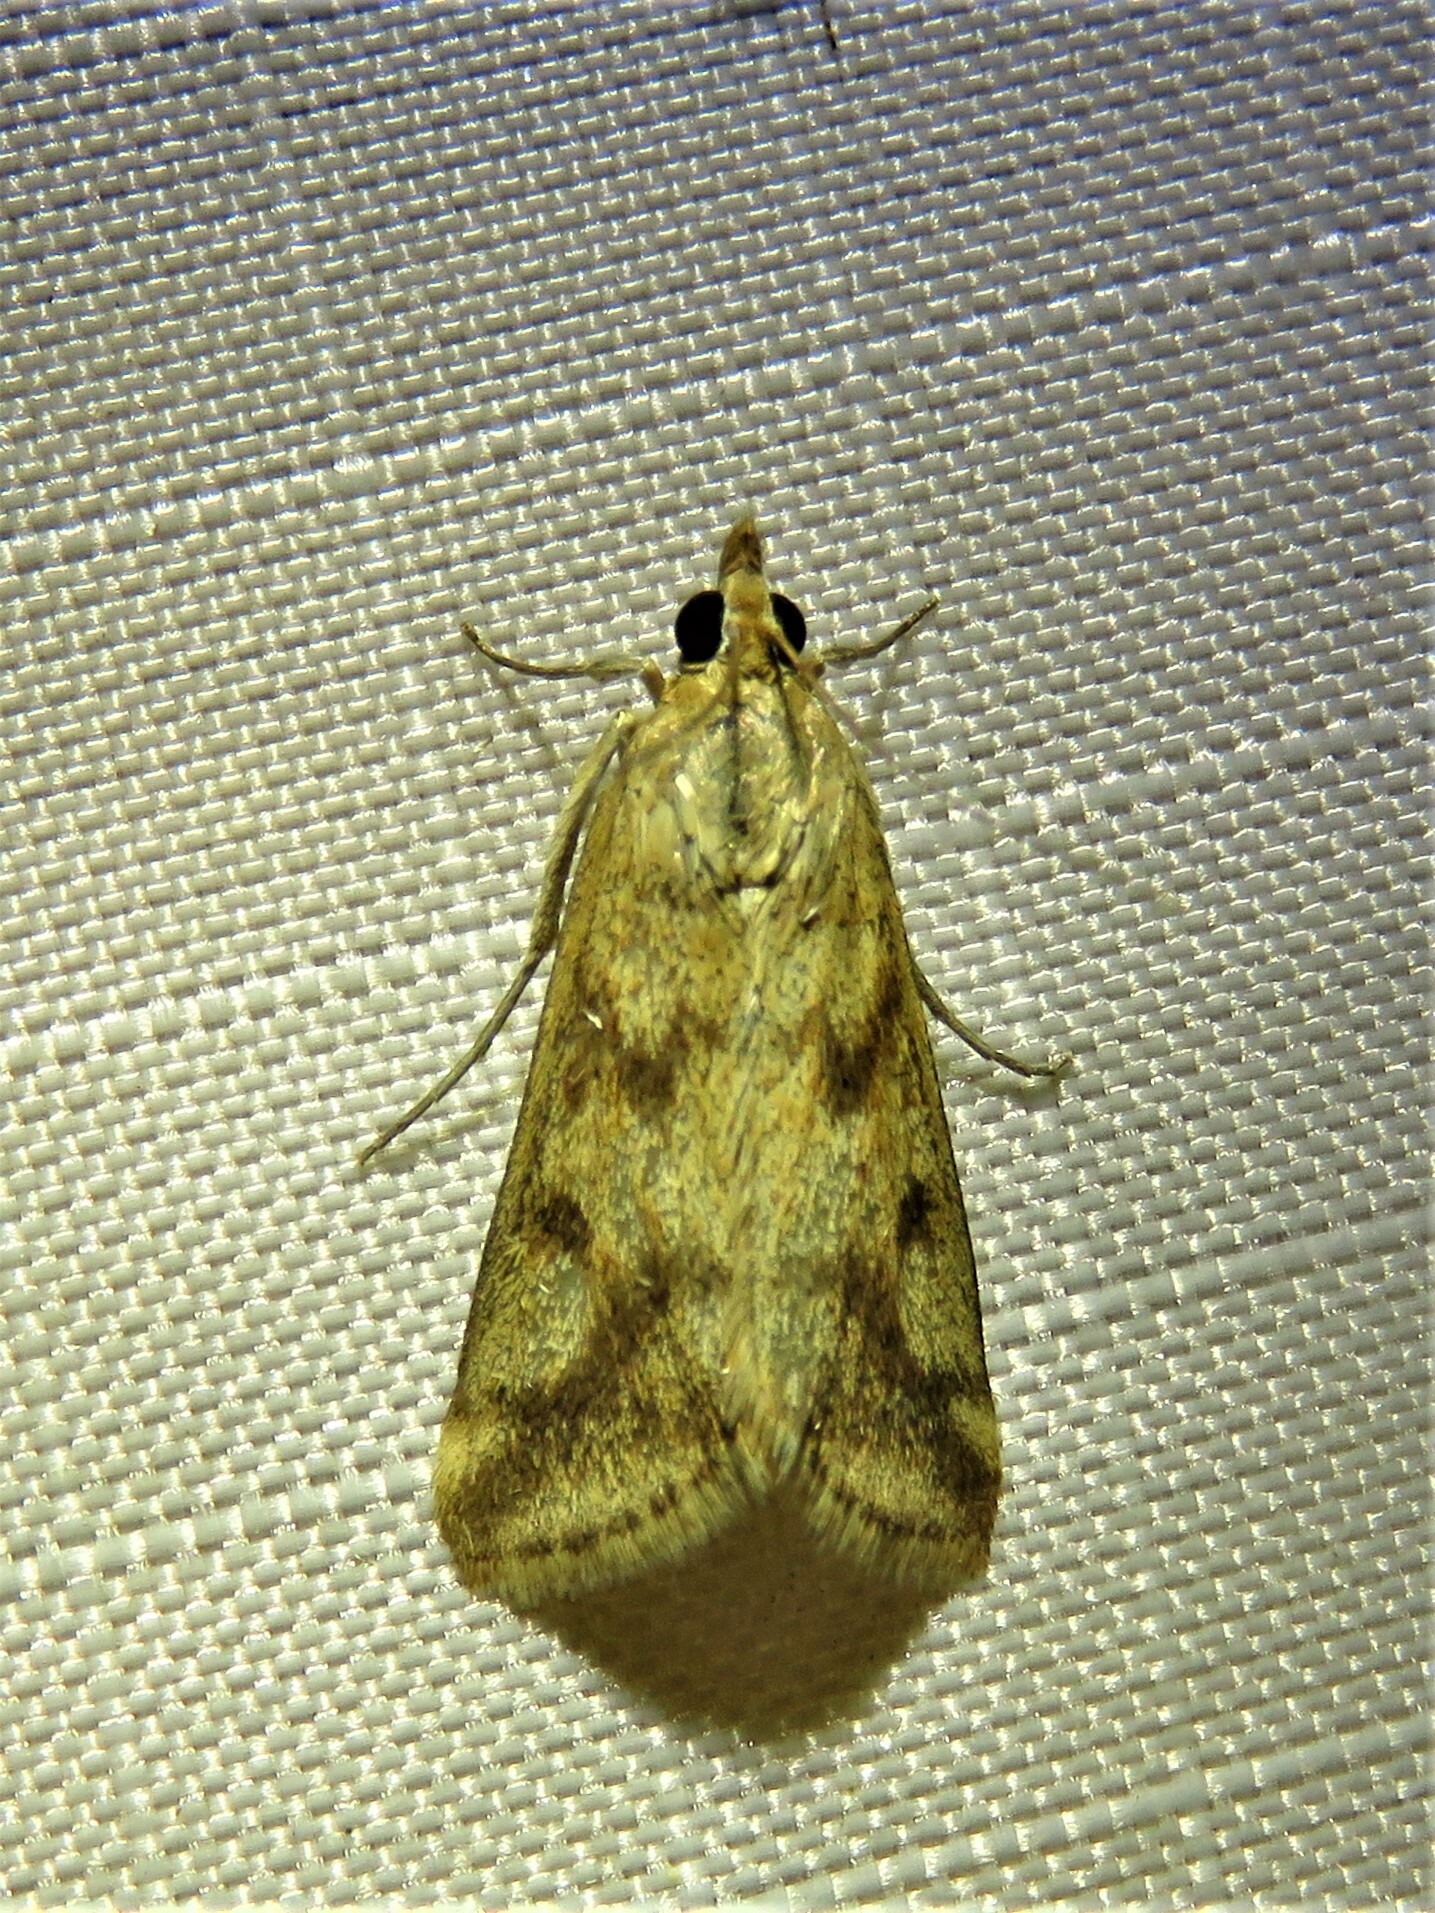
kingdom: Animalia
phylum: Arthropoda
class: Insecta
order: Lepidoptera
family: Crambidae
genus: Achyra
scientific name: Achyra bifidalis
